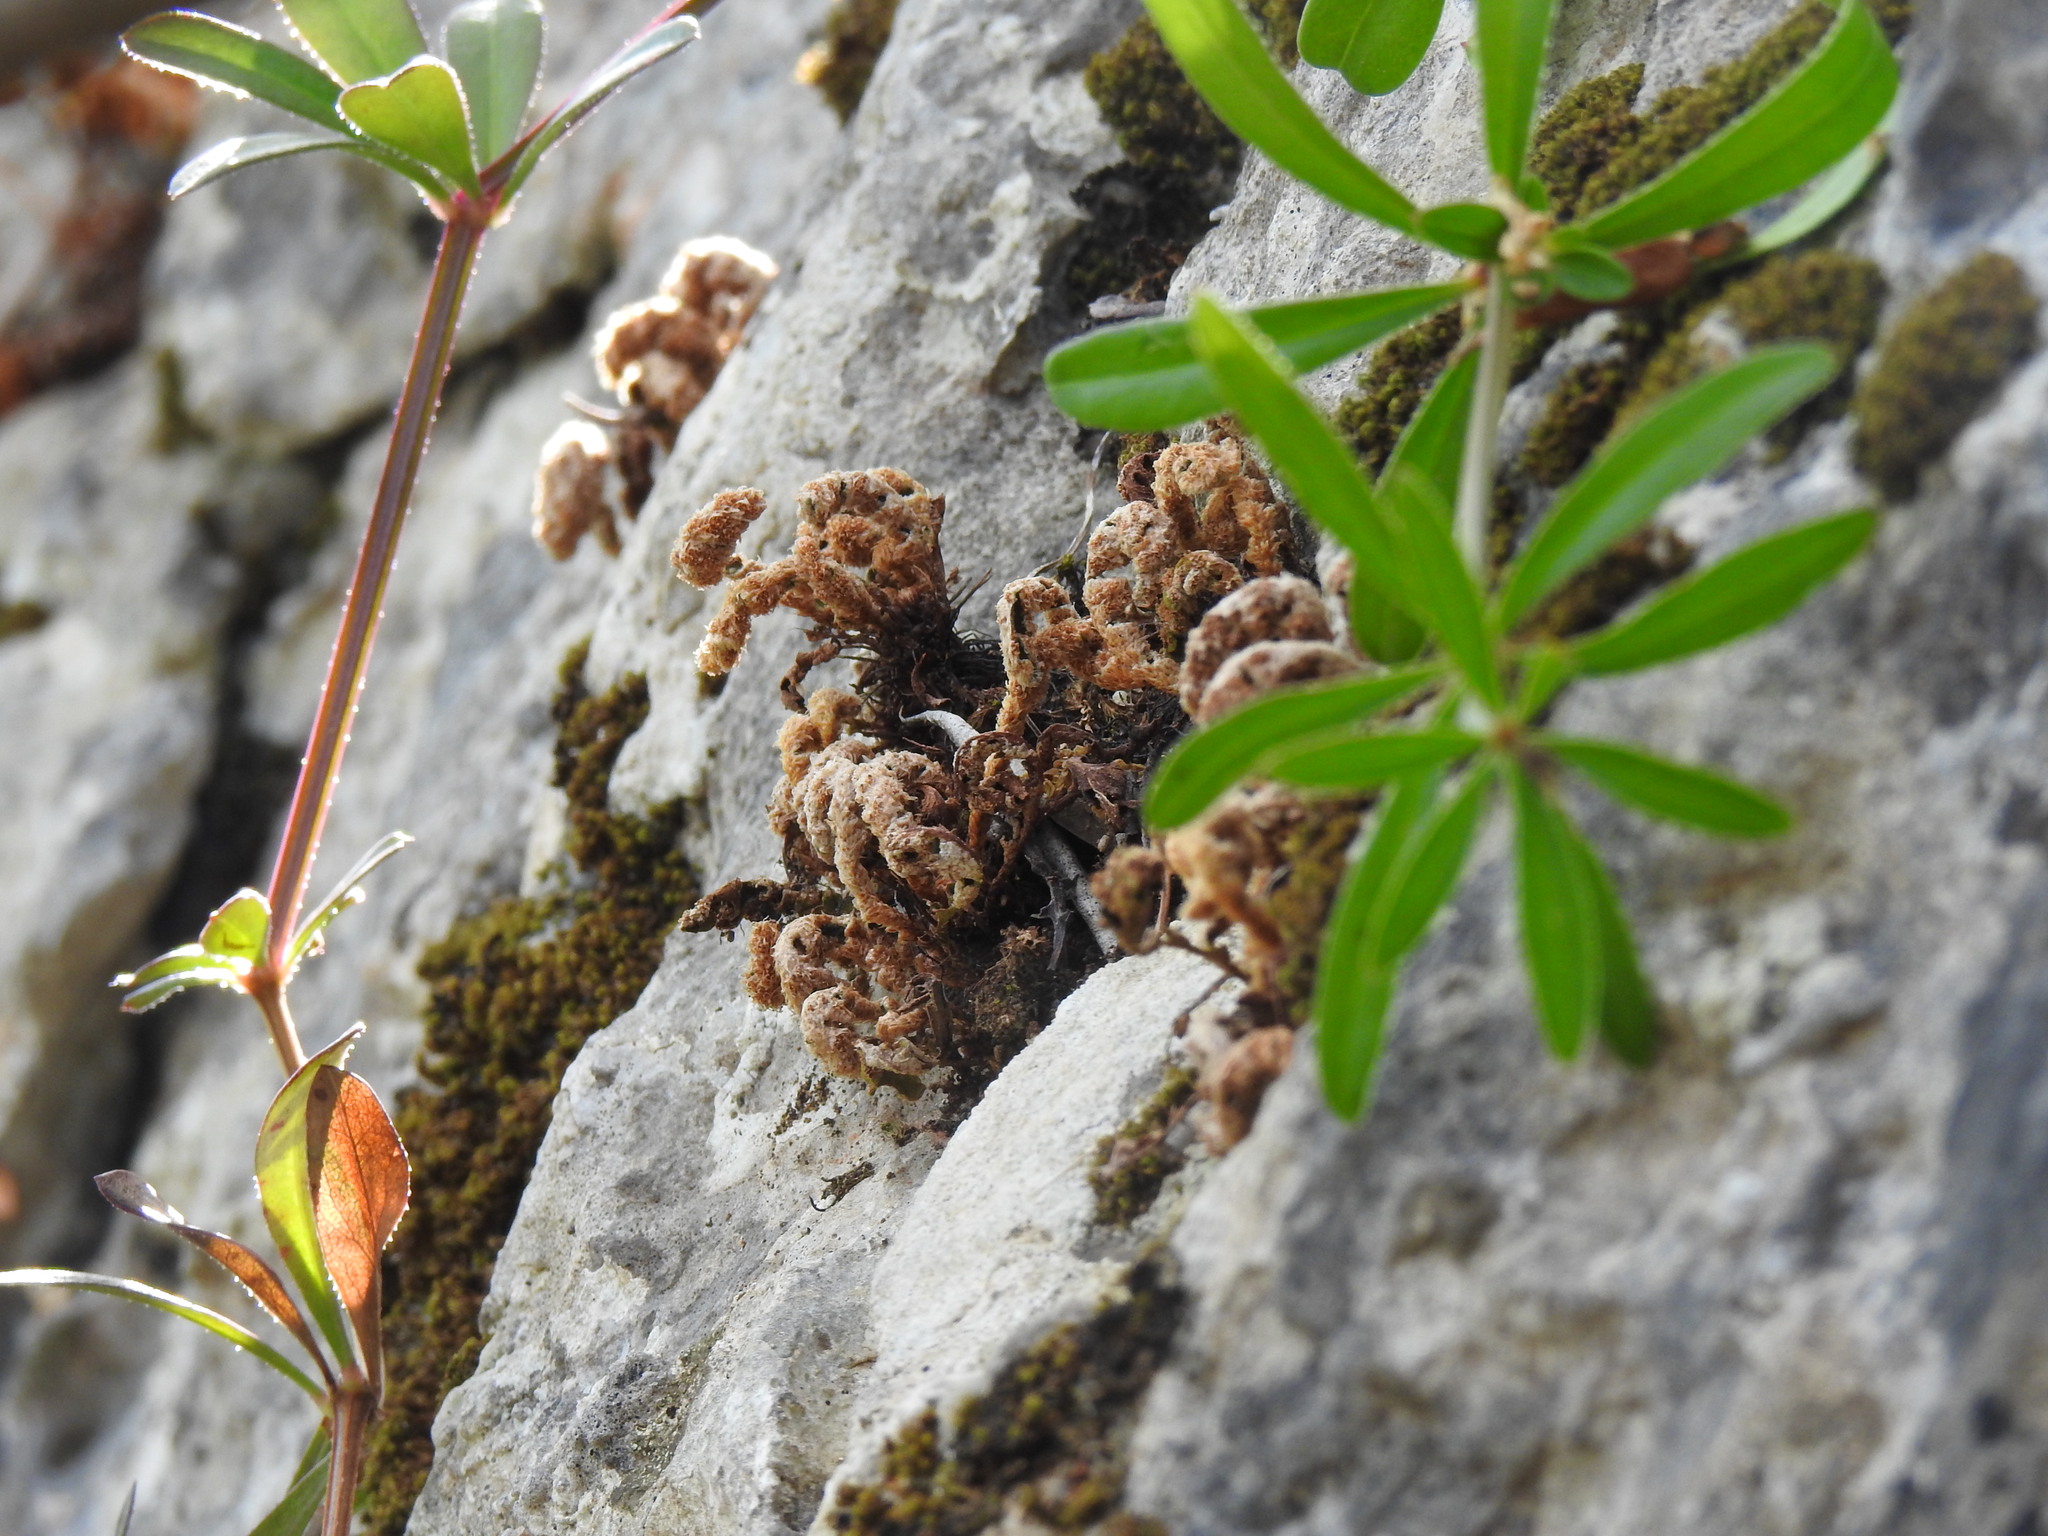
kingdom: Plantae
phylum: Tracheophyta
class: Polypodiopsida
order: Polypodiales
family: Aspleniaceae
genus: Asplenium
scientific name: Asplenium ceterach
